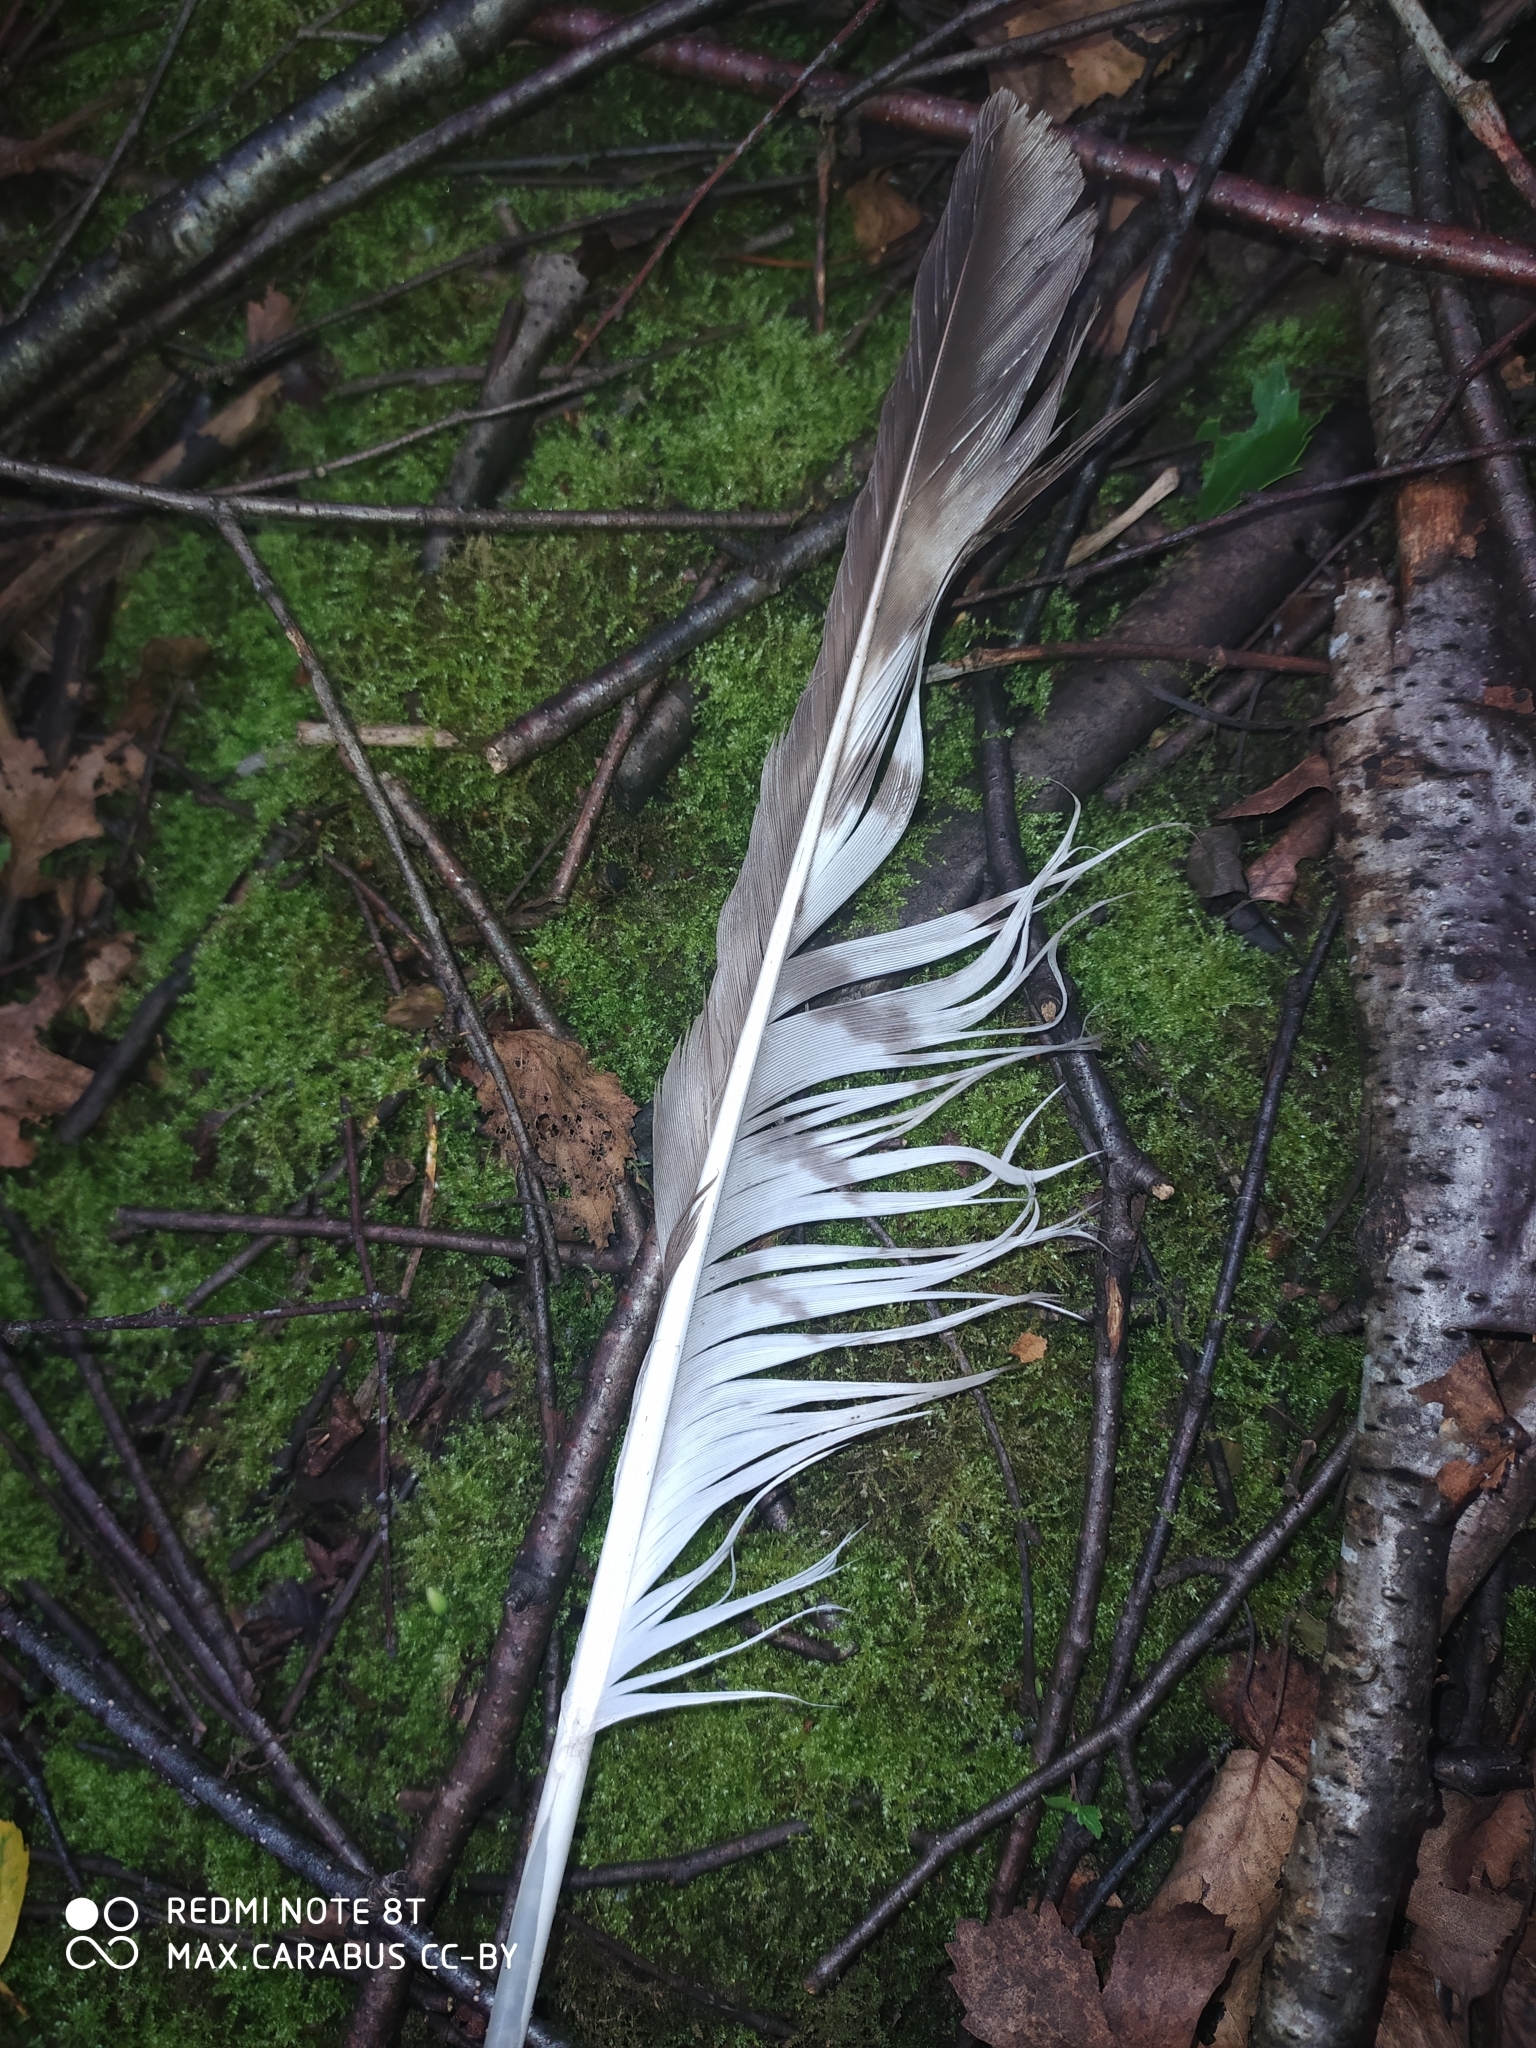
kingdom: Animalia
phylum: Chordata
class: Aves
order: Accipitriformes
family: Accipitridae
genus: Buteo
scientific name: Buteo buteo
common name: Common buzzard
